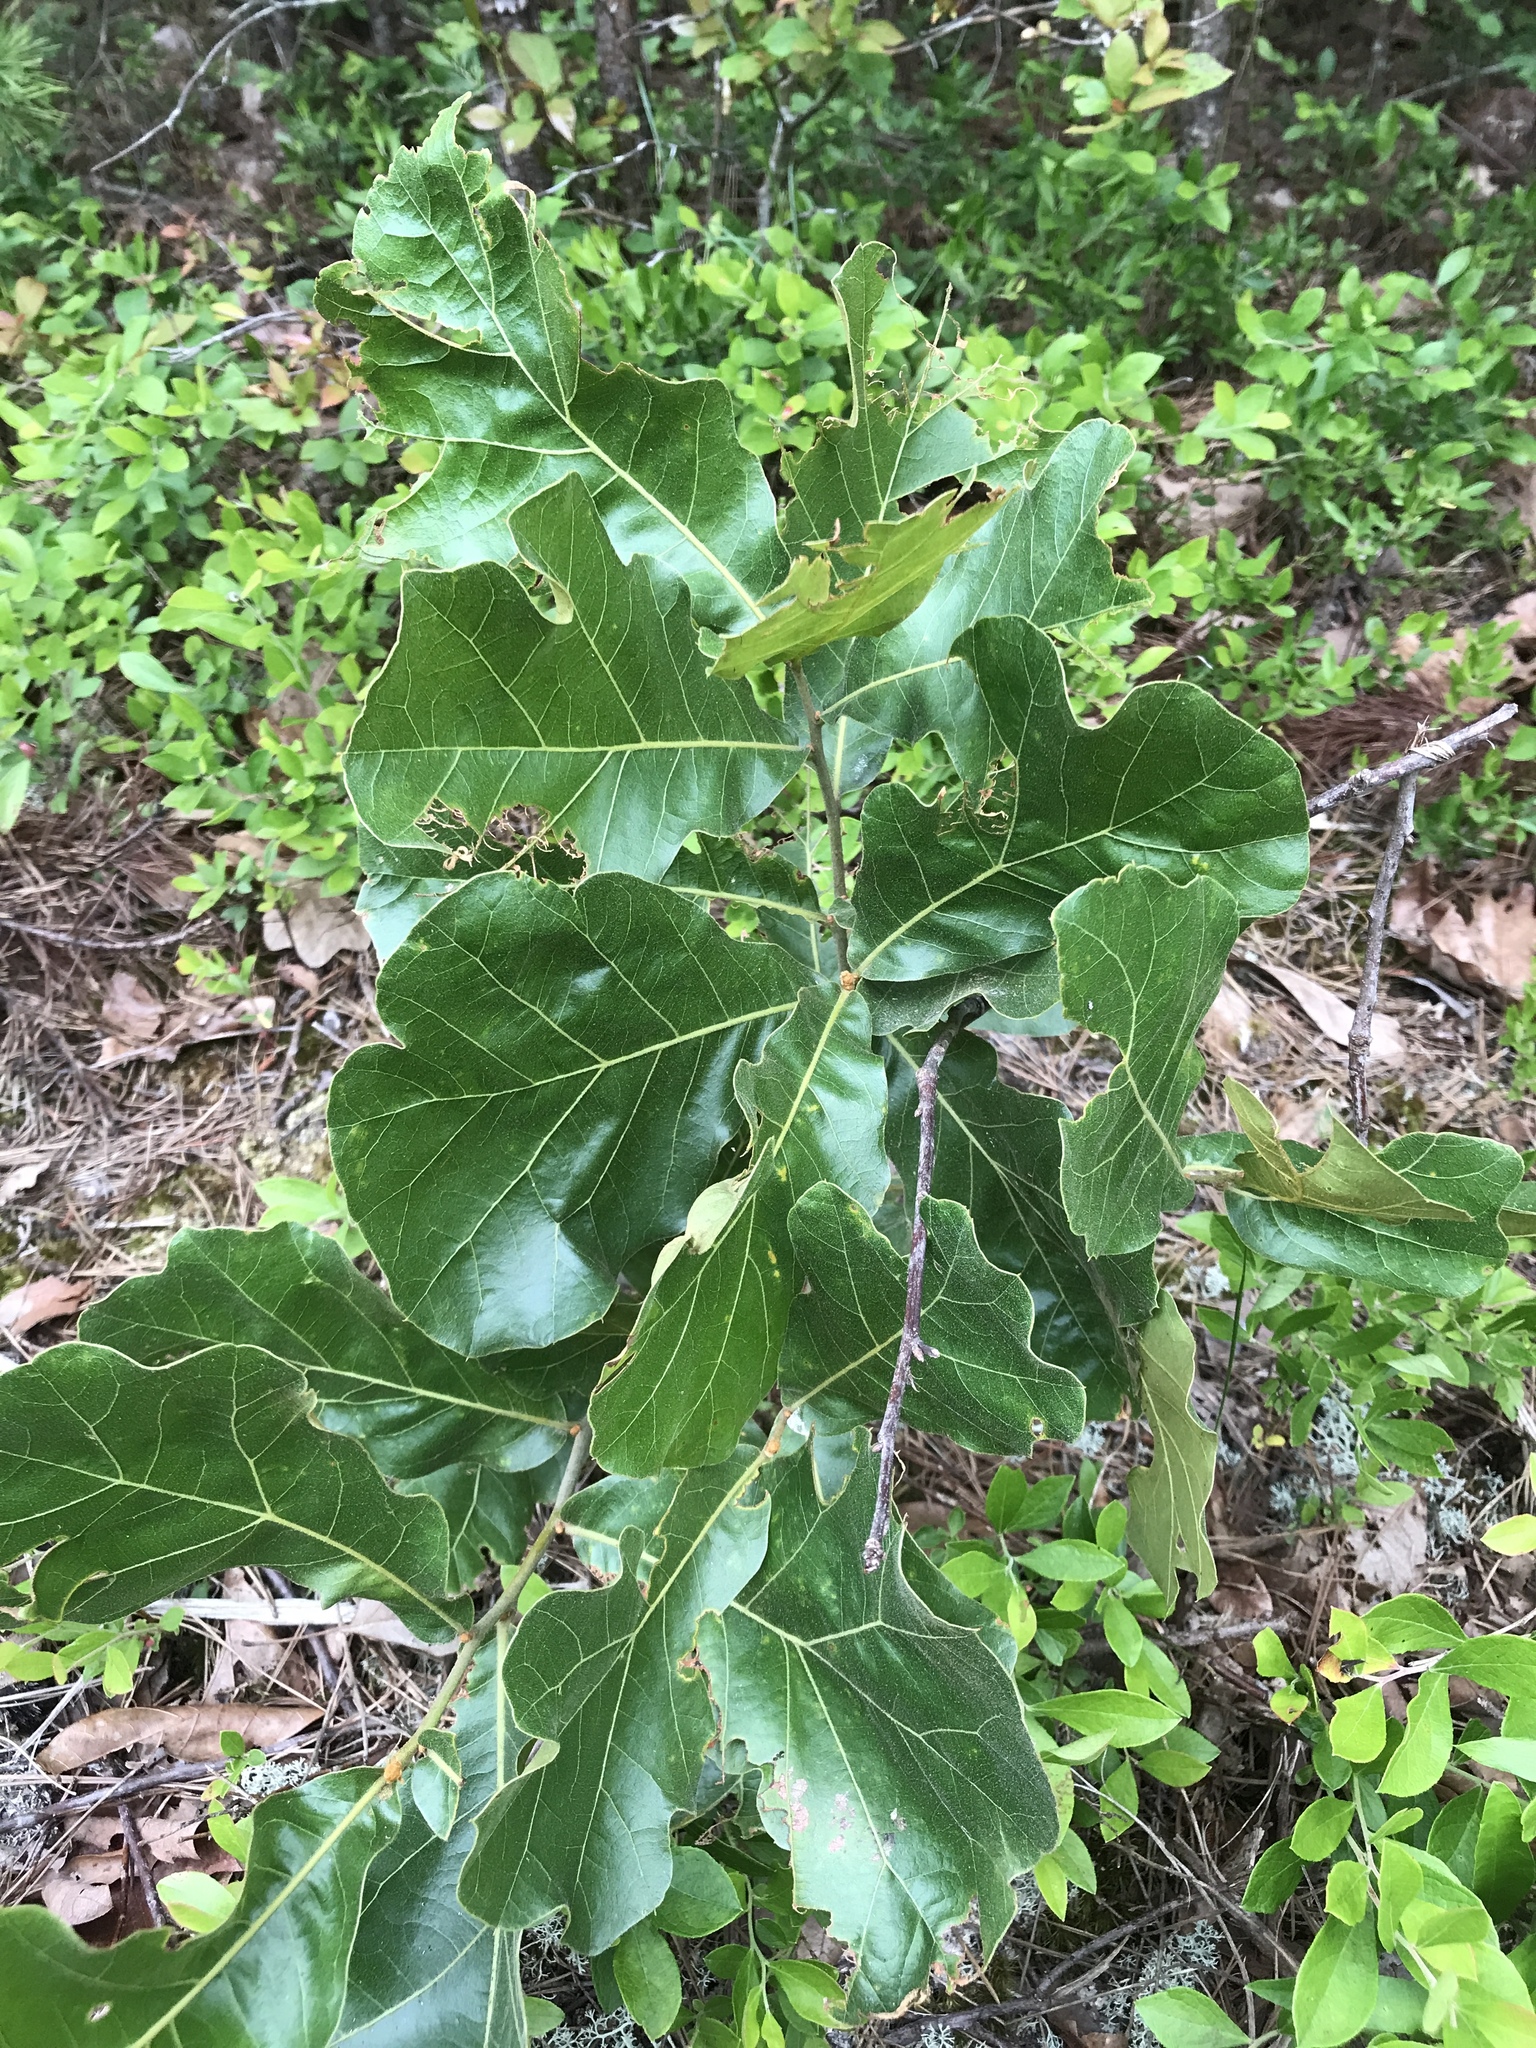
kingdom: Plantae
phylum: Tracheophyta
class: Magnoliopsida
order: Fagales
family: Fagaceae
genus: Quercus
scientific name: Quercus marilandica
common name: Blackjack oak
